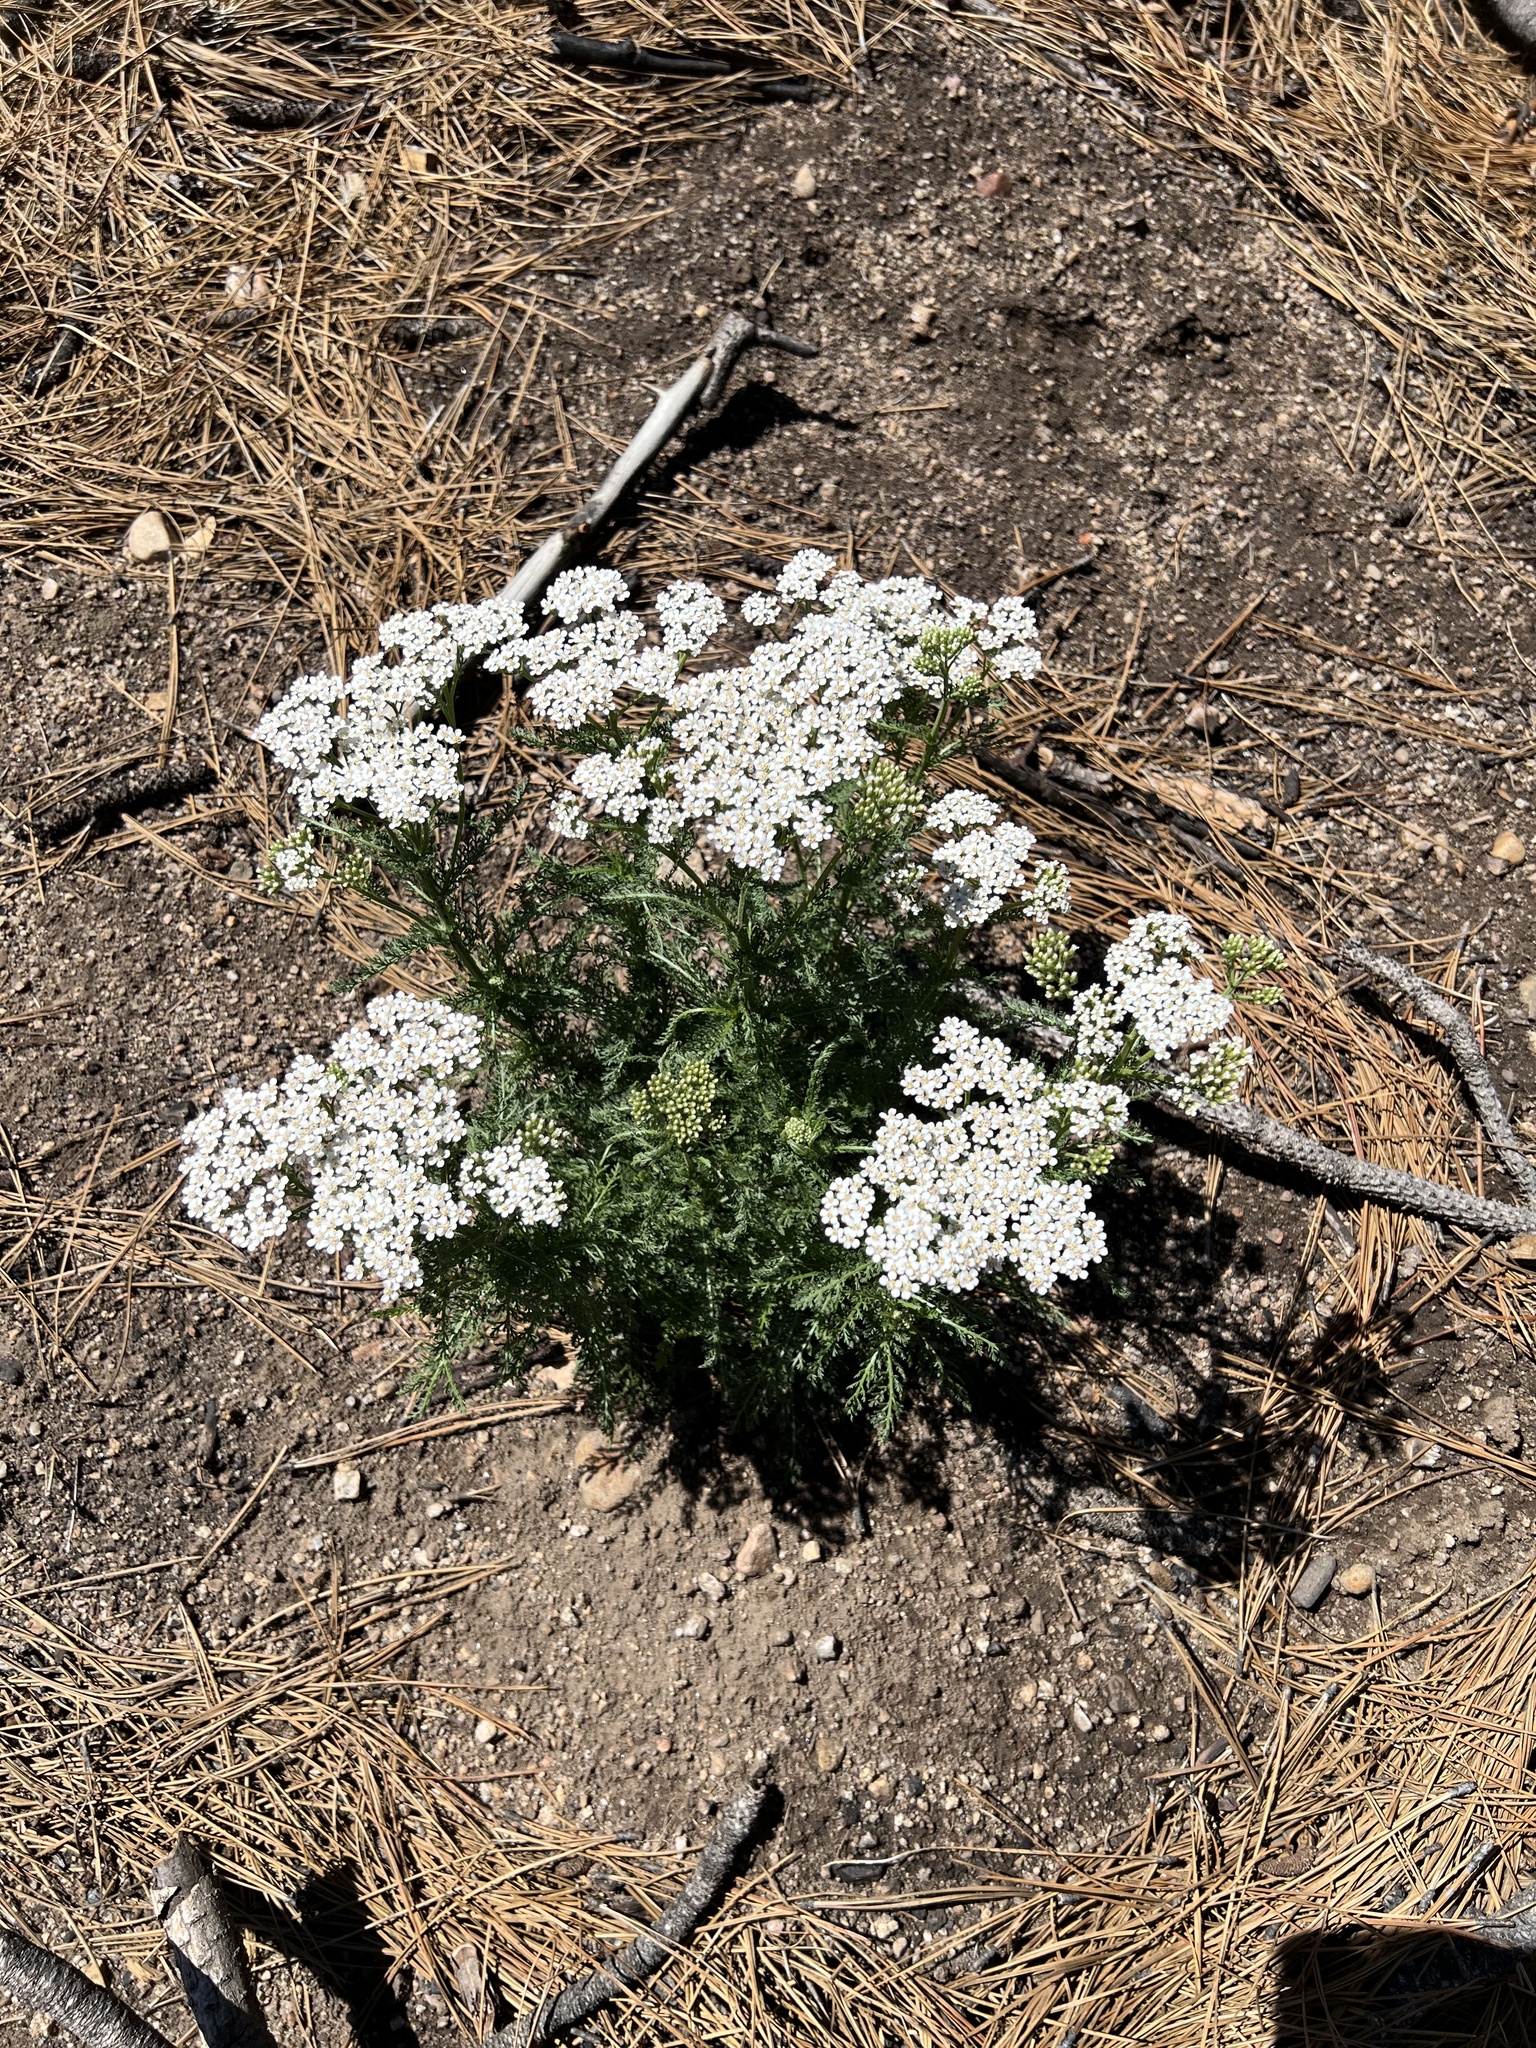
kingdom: Plantae
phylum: Tracheophyta
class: Magnoliopsida
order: Asterales
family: Asteraceae
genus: Achillea
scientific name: Achillea millefolium
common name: Yarrow
